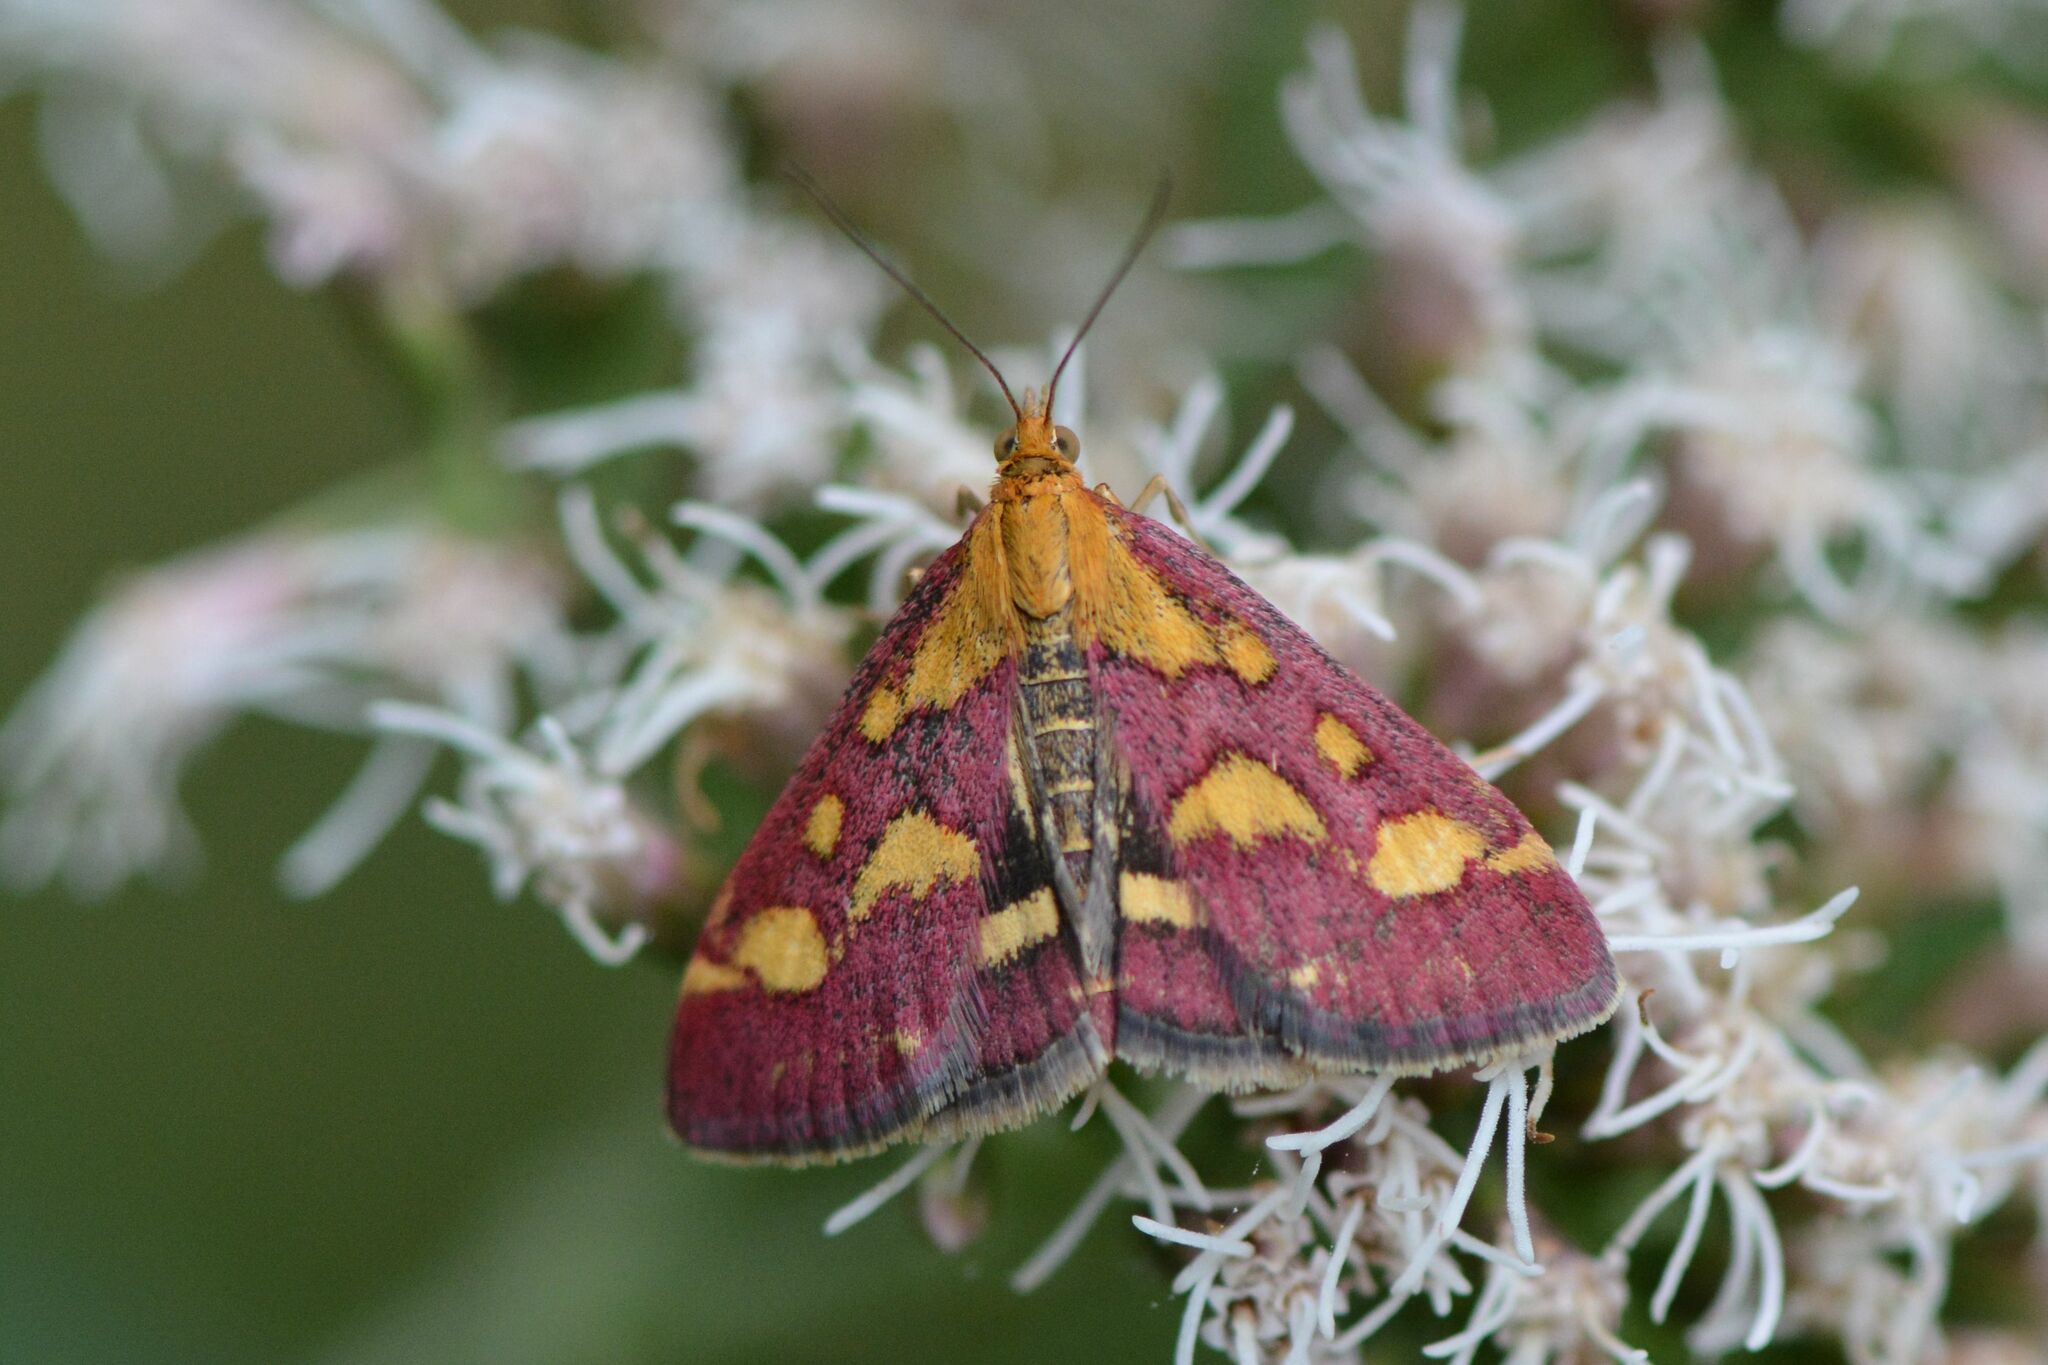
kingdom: Animalia
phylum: Arthropoda
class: Insecta
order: Lepidoptera
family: Crambidae
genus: Pyrausta
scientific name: Pyrausta purpuralis
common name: Common purple & gold
